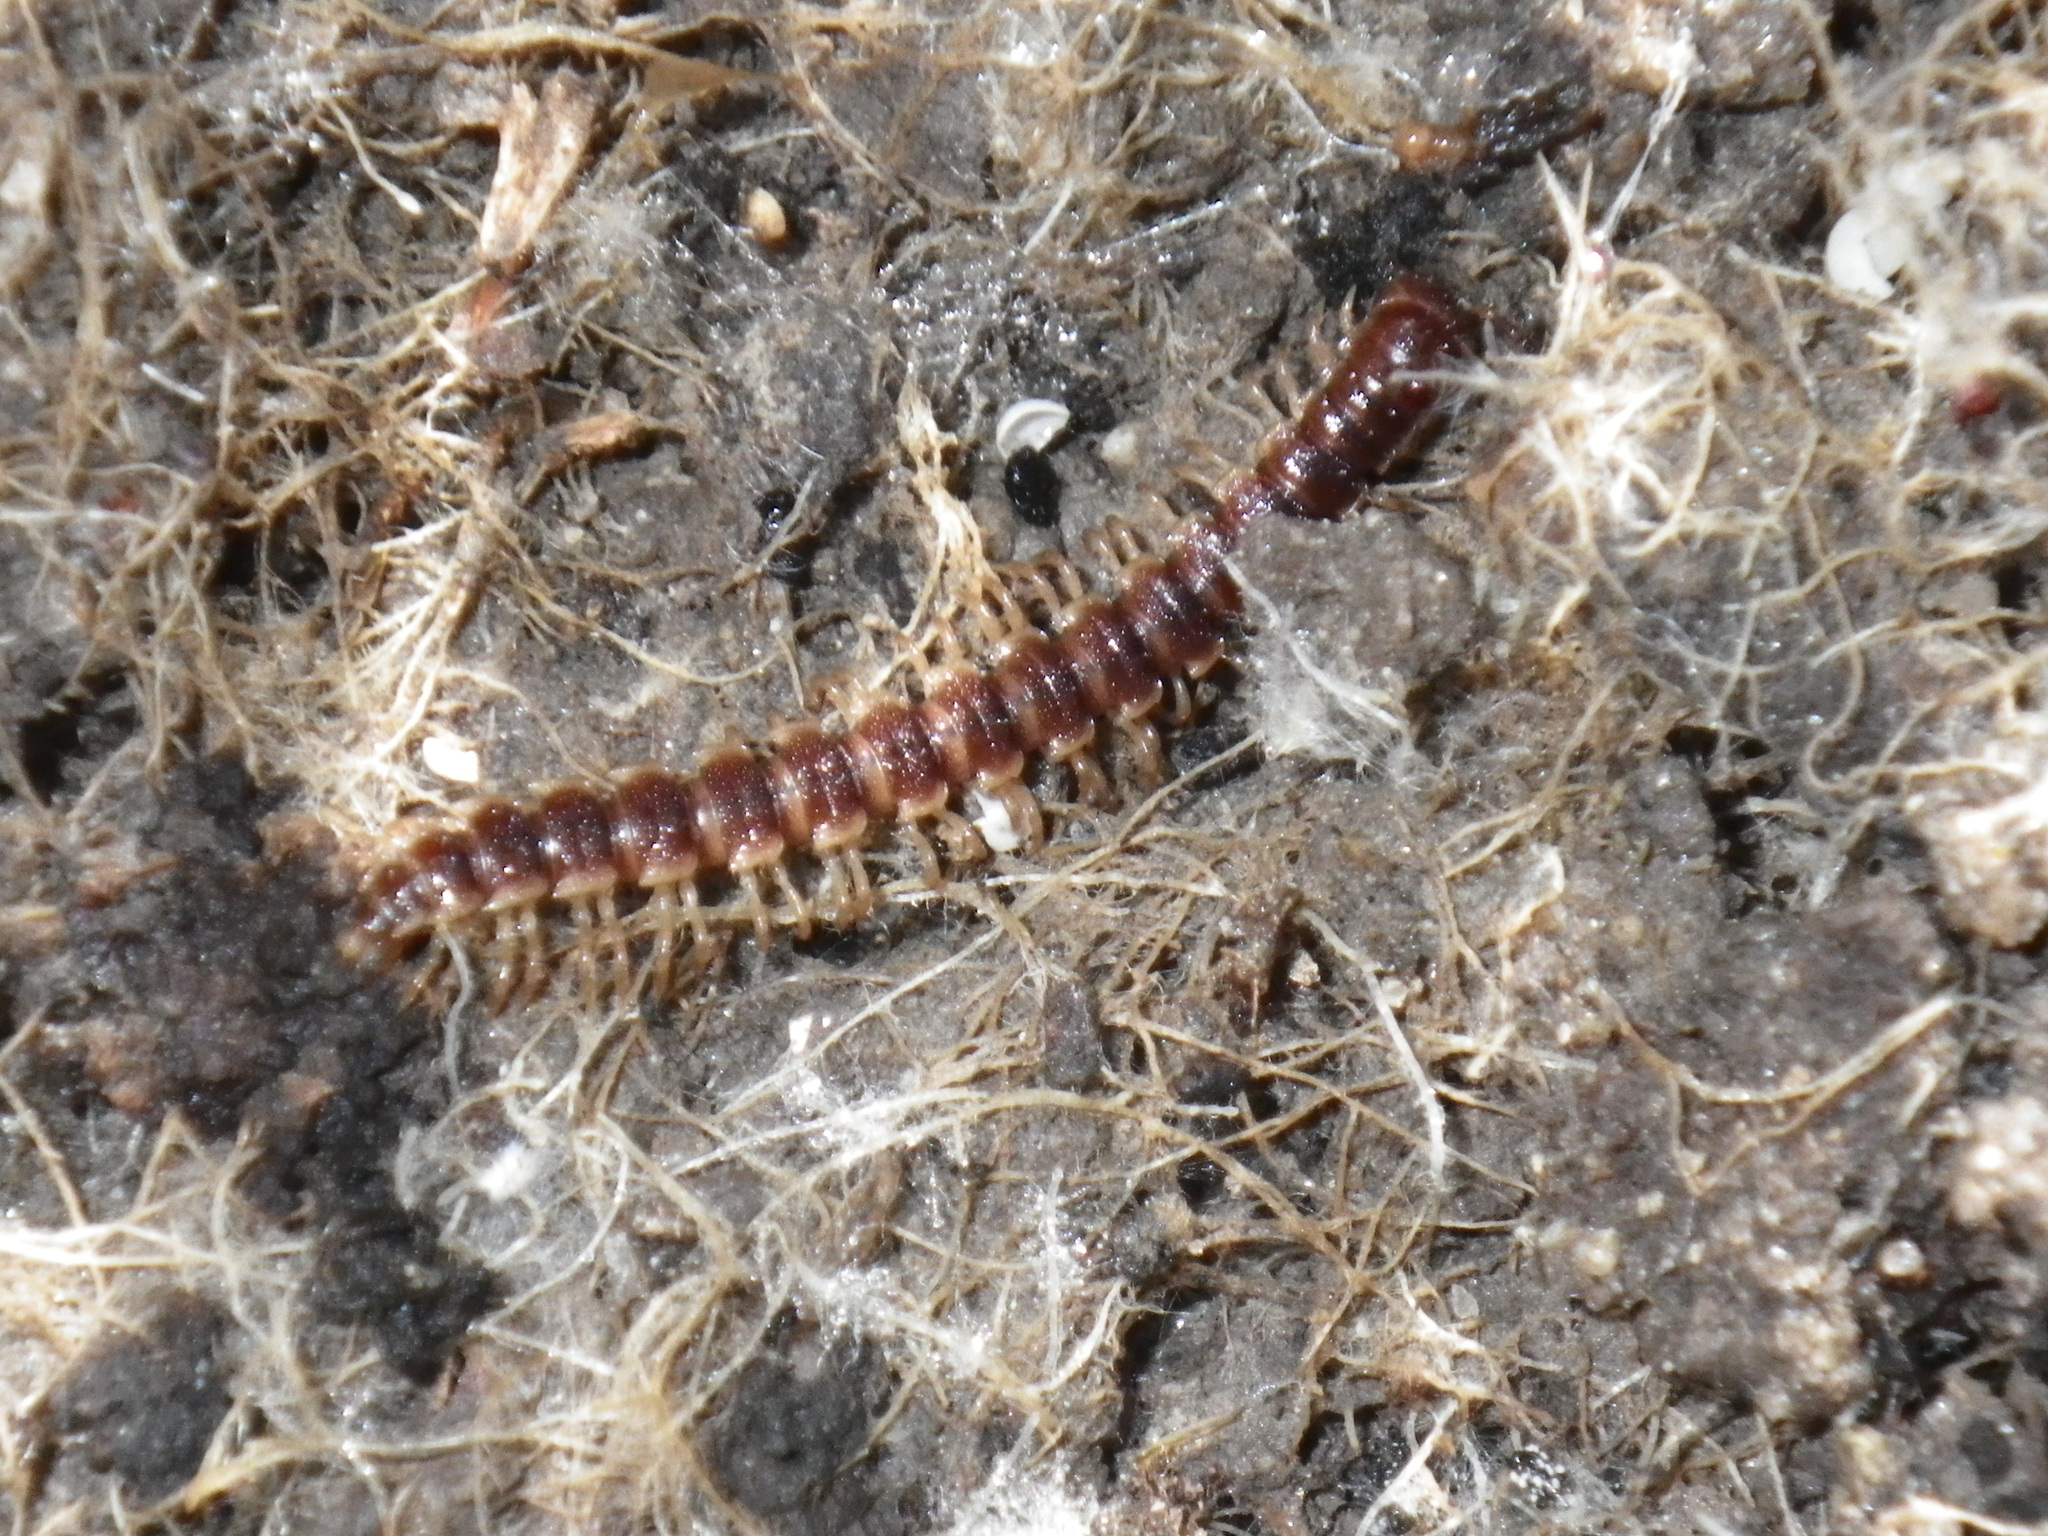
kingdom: Animalia
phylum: Arthropoda
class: Diplopoda
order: Polydesmida
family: Paradoxosomatidae
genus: Oxidus
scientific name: Oxidus gracilis
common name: Greenhouse millipede
